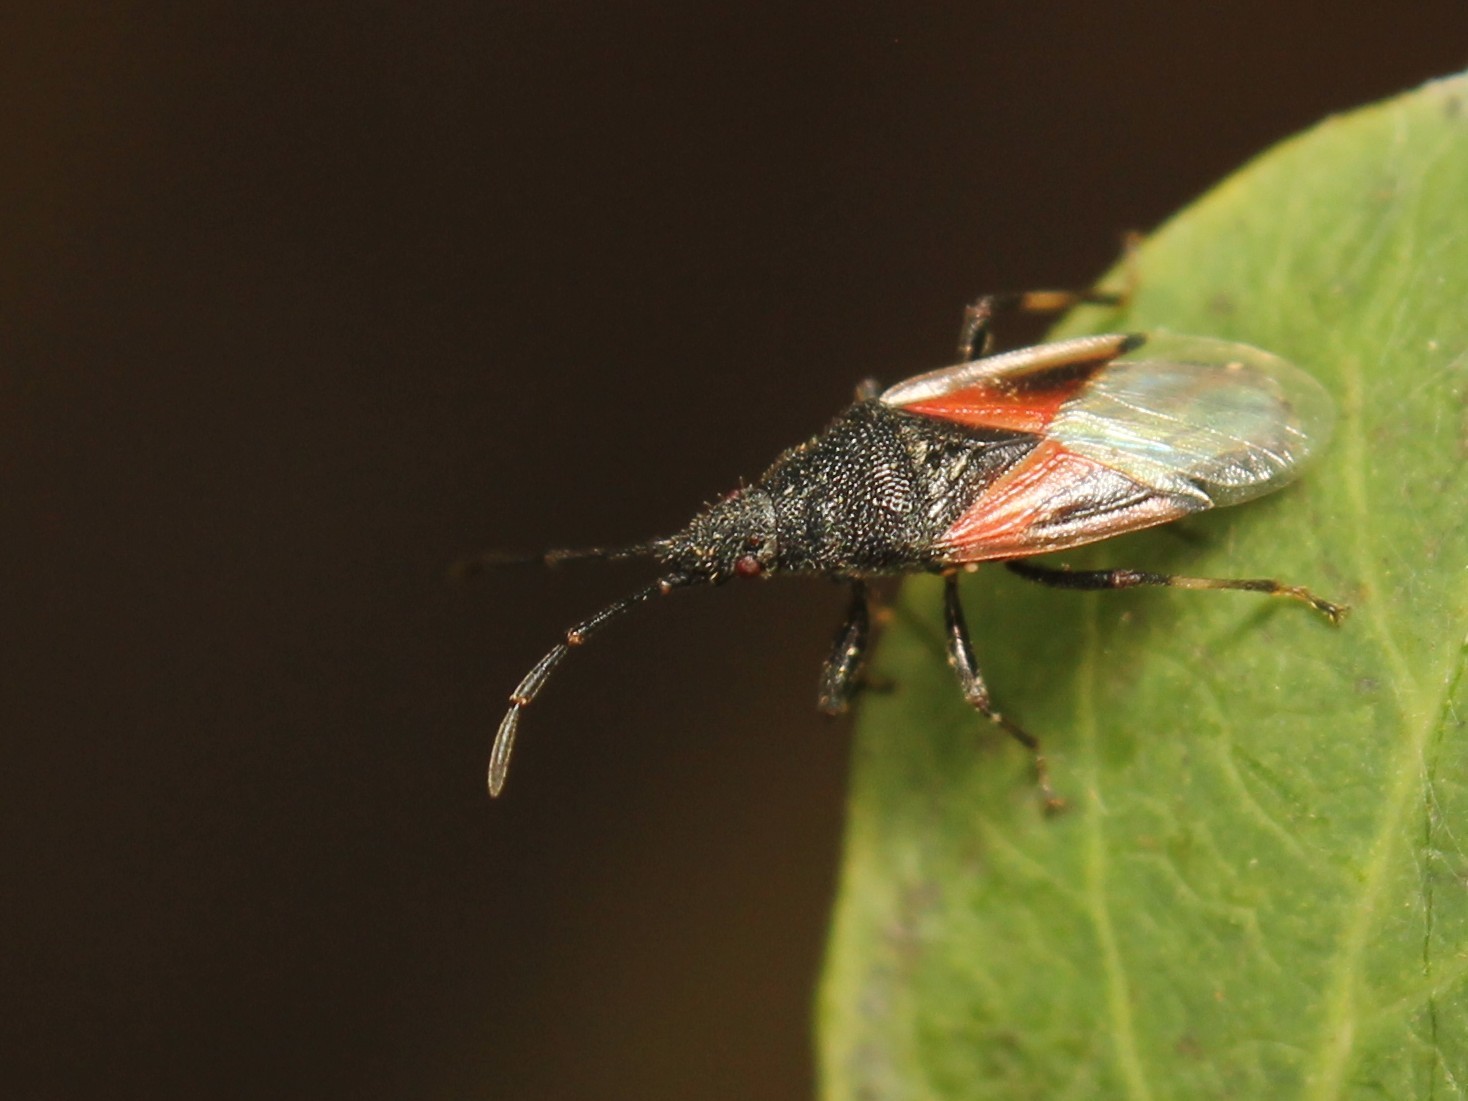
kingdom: Animalia
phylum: Arthropoda
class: Insecta
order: Hemiptera
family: Oxycarenidae
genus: Oxycarenus
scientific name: Oxycarenus lavaterae
